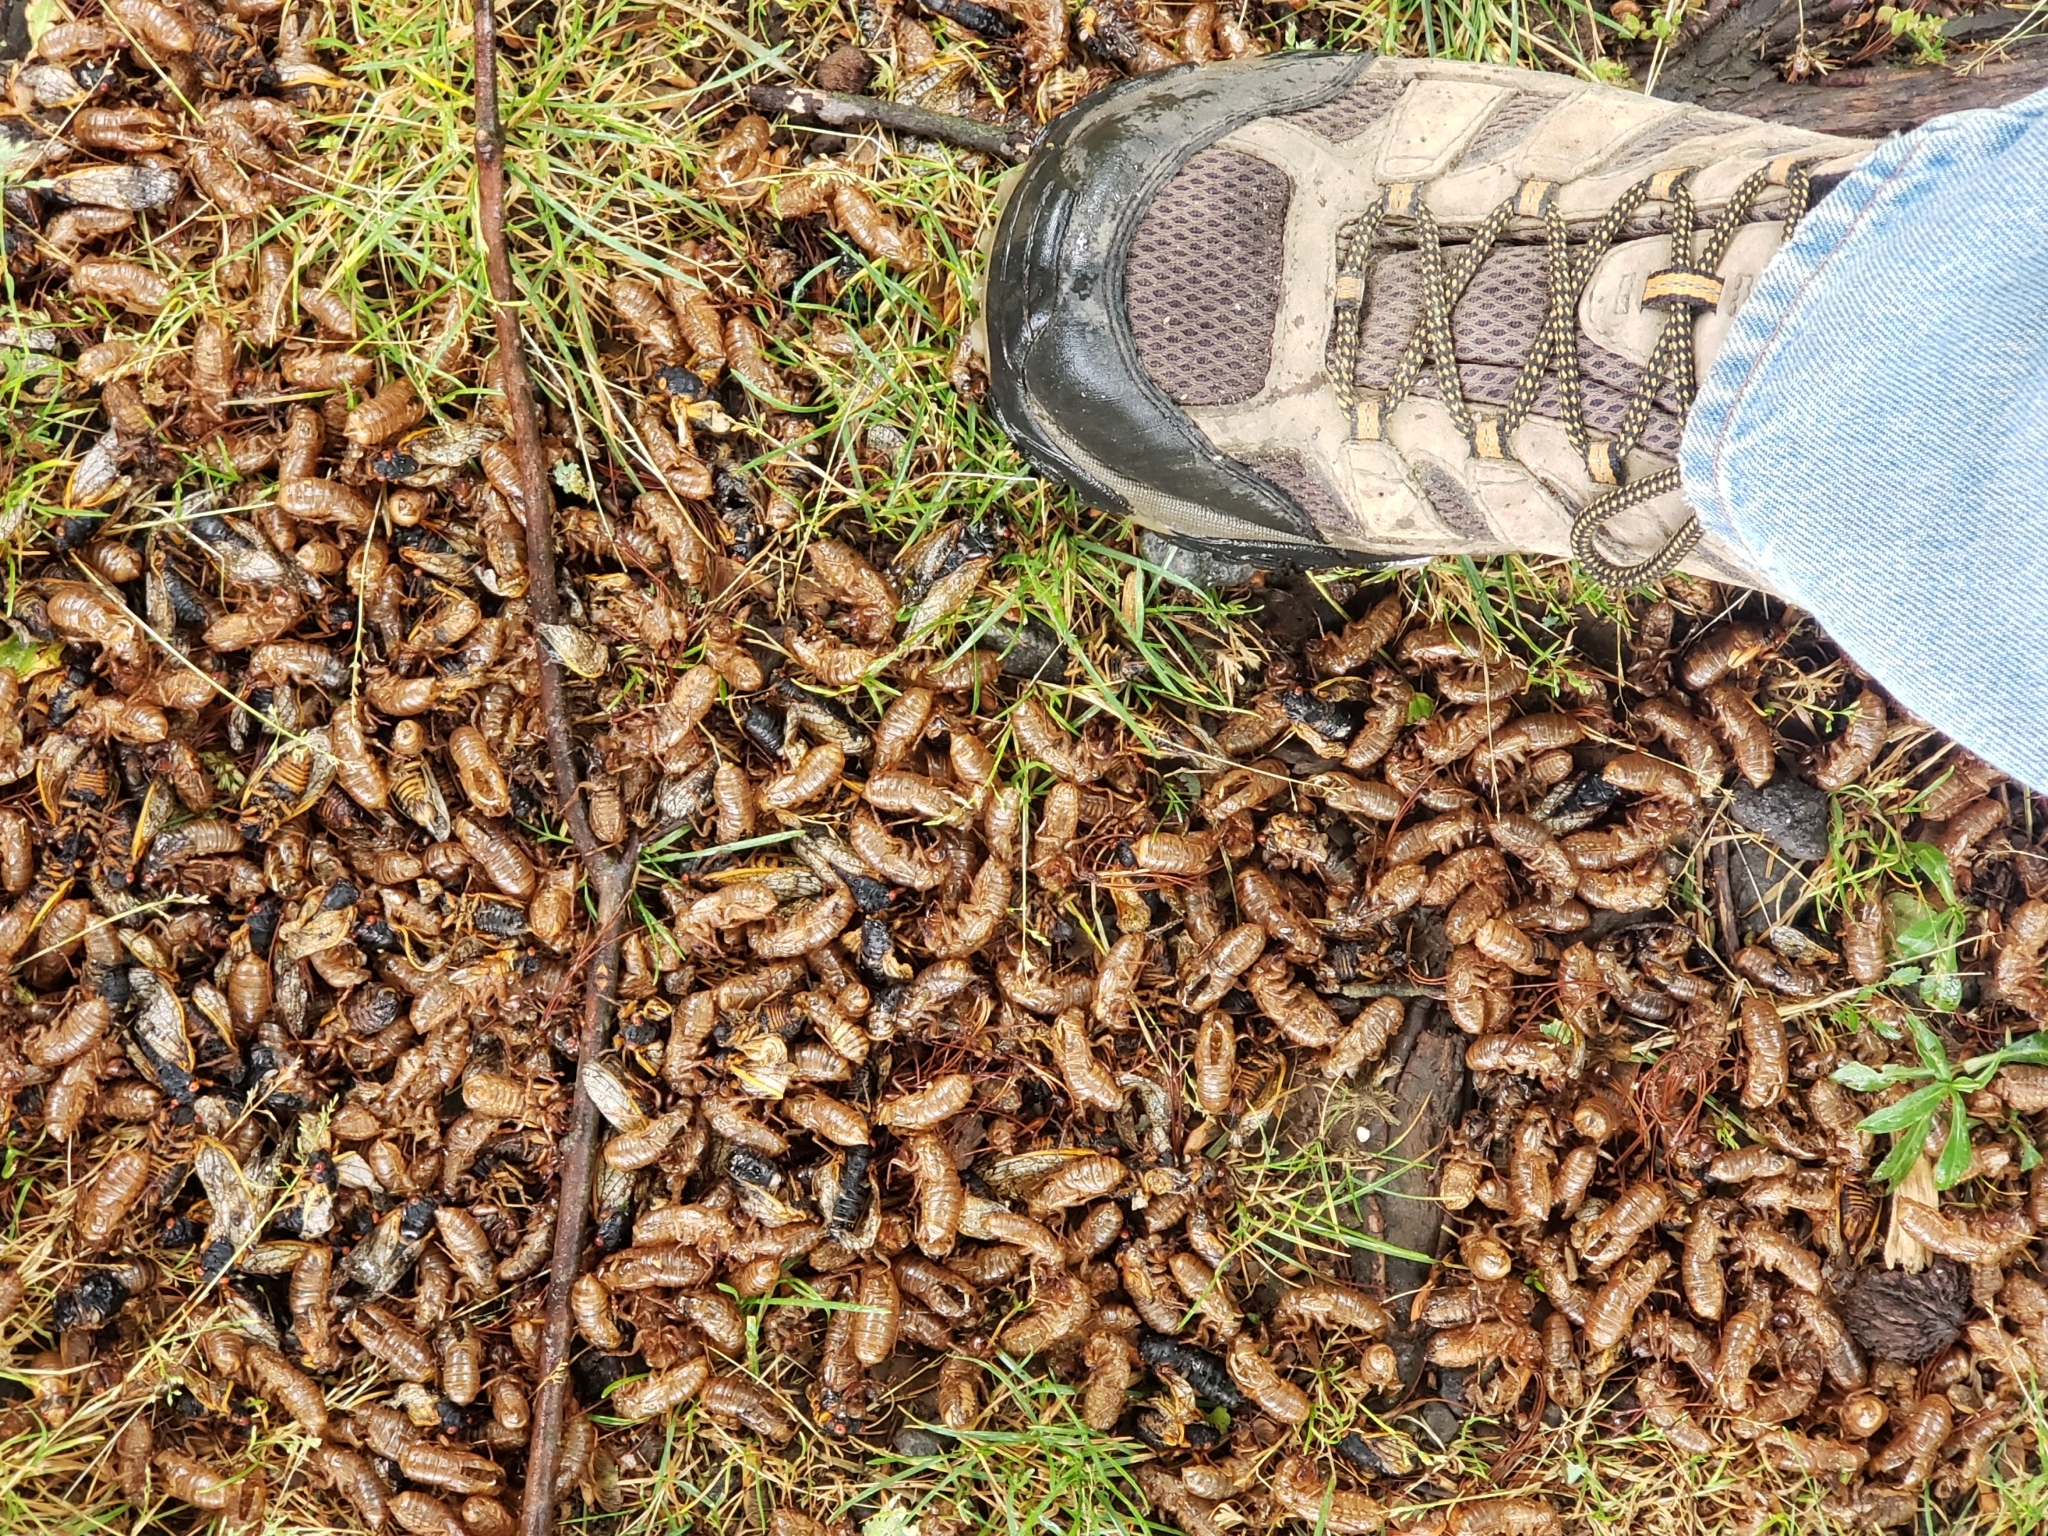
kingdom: Animalia
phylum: Arthropoda
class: Insecta
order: Hemiptera
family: Cicadidae
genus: Magicicada
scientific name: Magicicada
